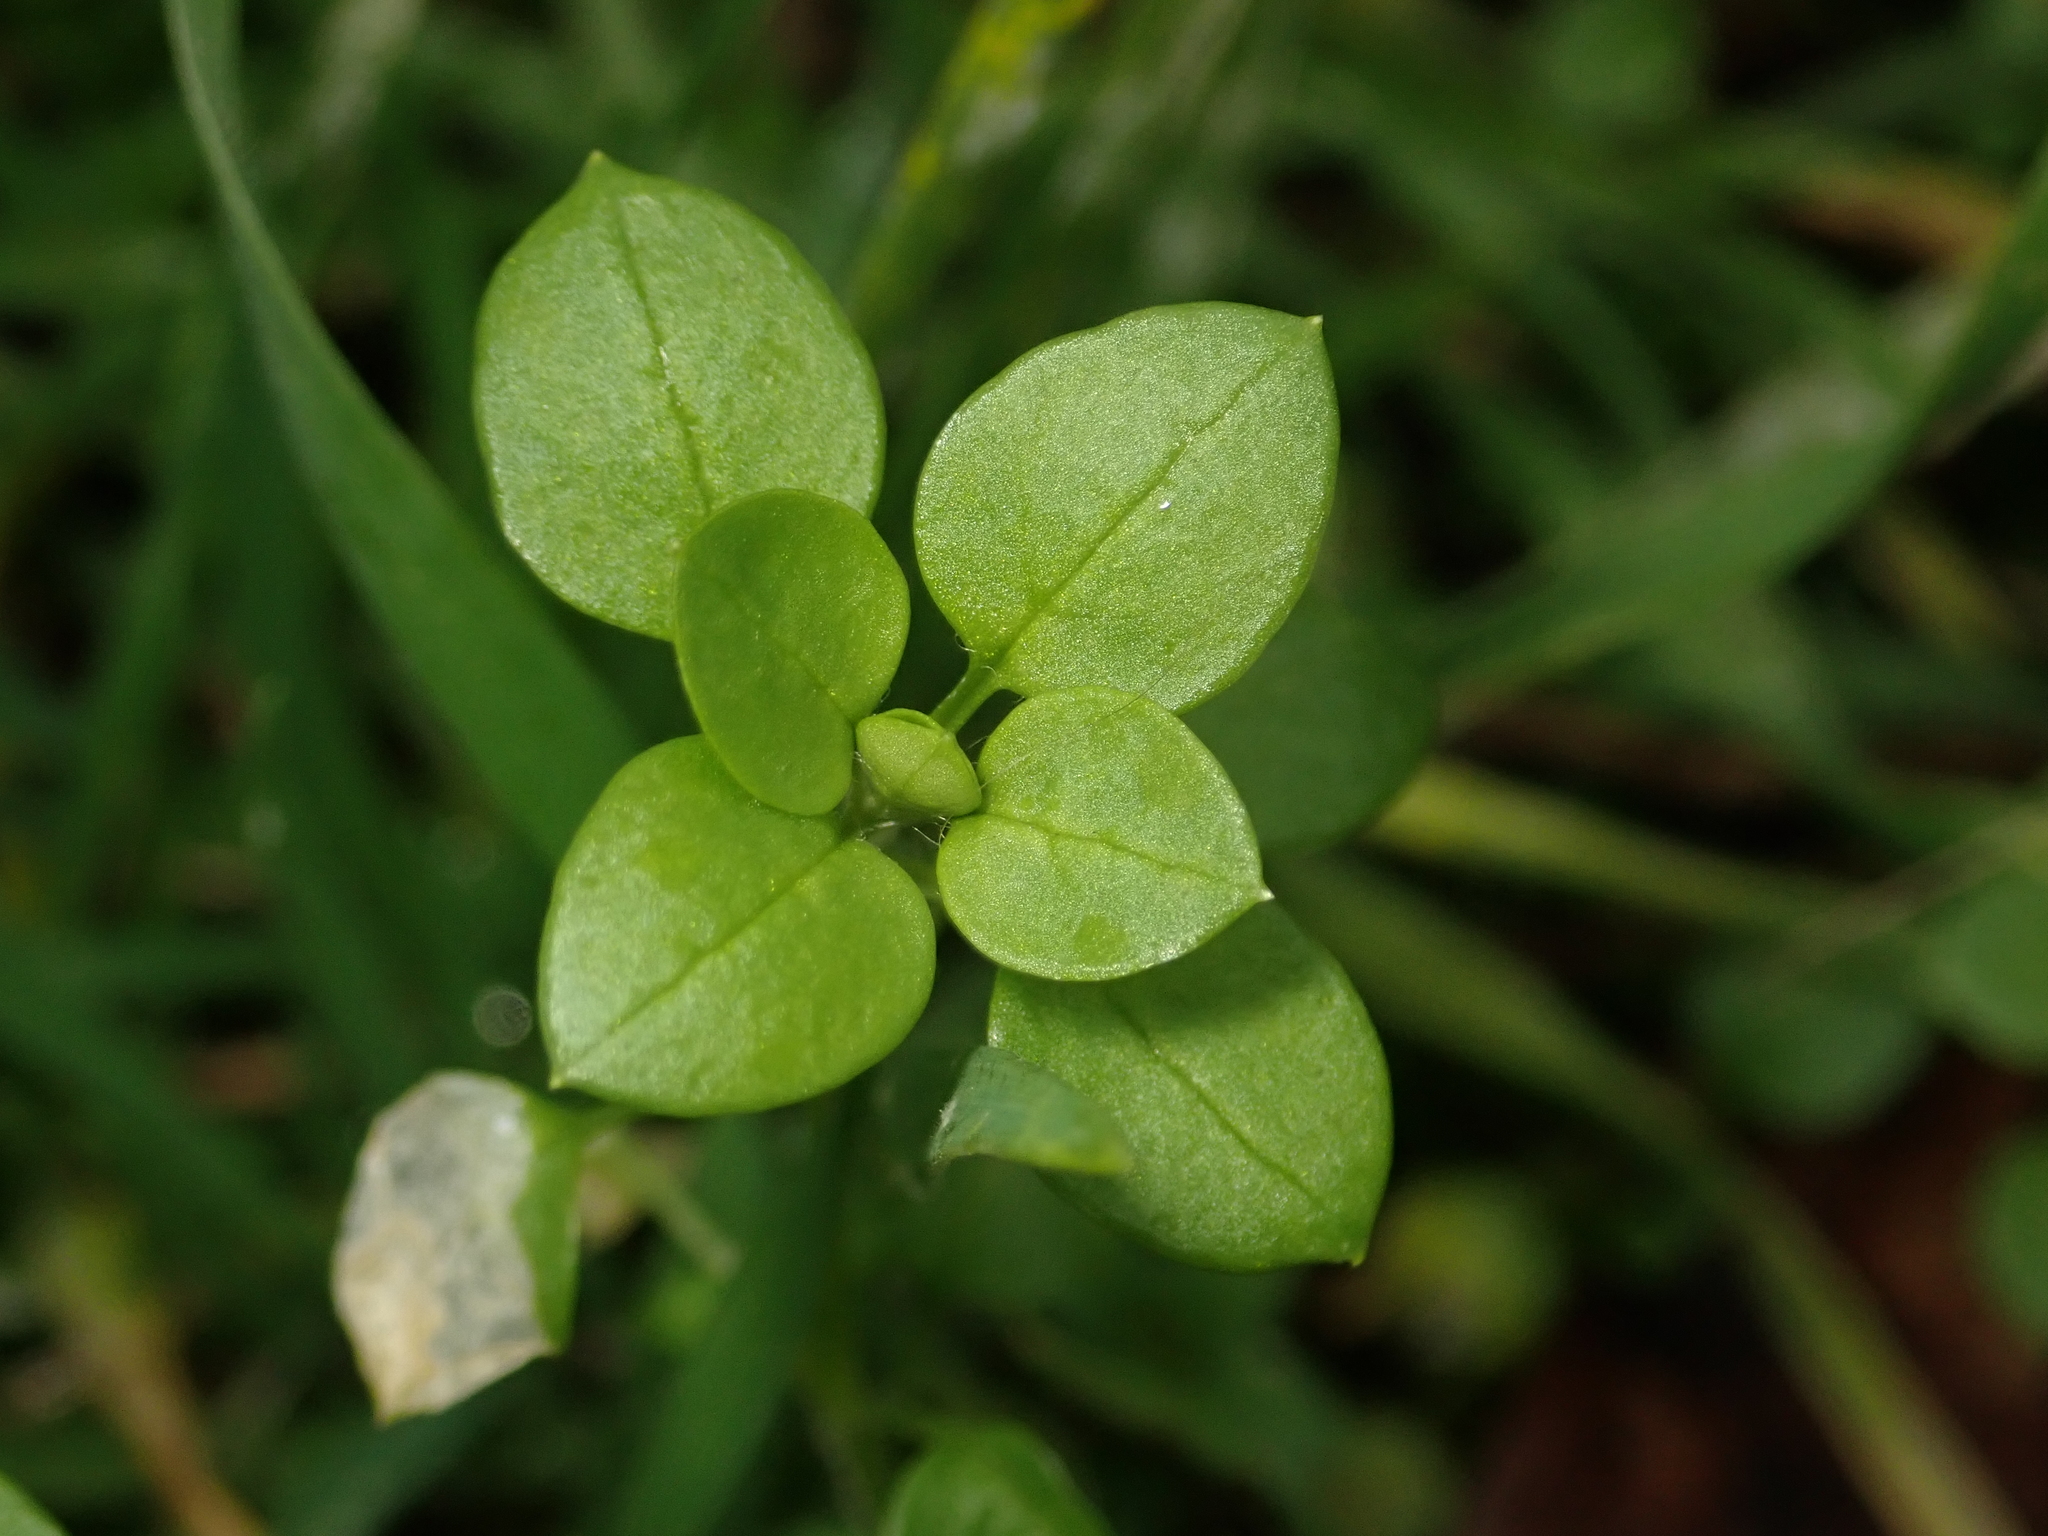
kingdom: Plantae
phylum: Tracheophyta
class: Magnoliopsida
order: Caryophyllales
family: Caryophyllaceae
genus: Stellaria
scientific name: Stellaria media
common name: Common chickweed
